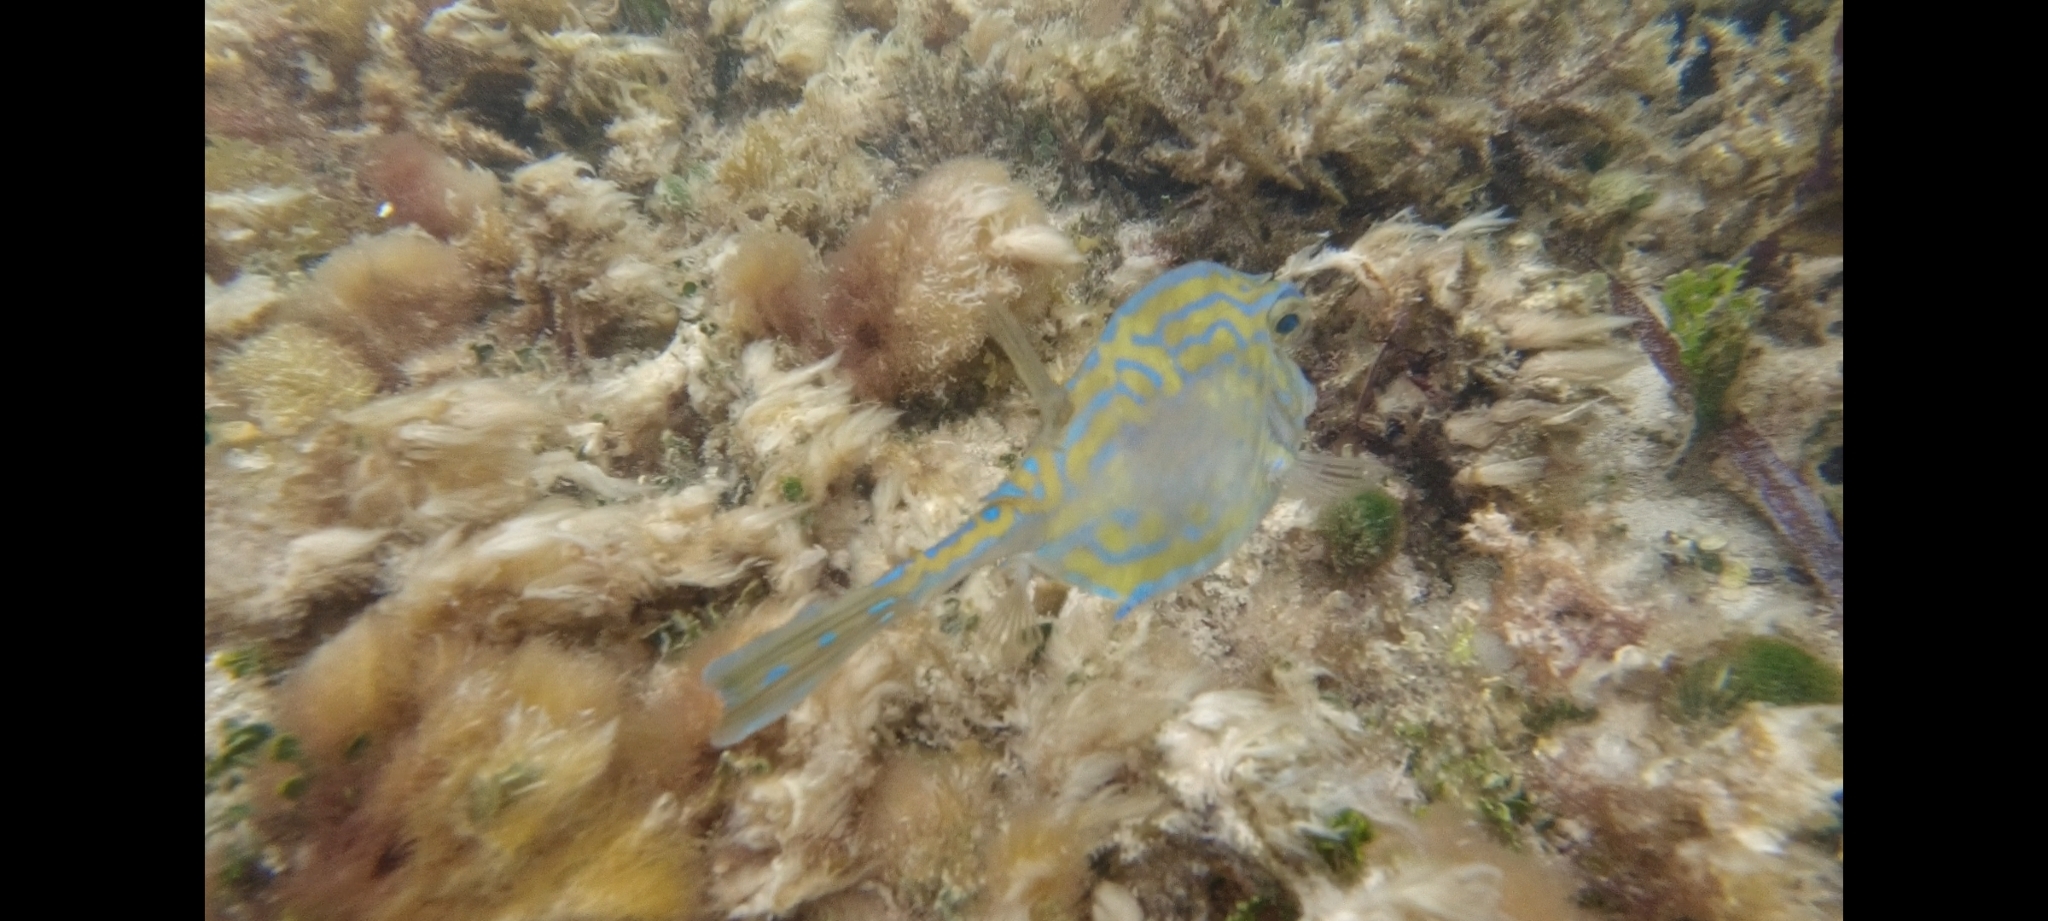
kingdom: Animalia
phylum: Chordata
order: Tetraodontiformes
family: Ostraciidae
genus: Acanthostracion
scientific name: Acanthostracion quadricornis
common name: Scrawled cowfish
